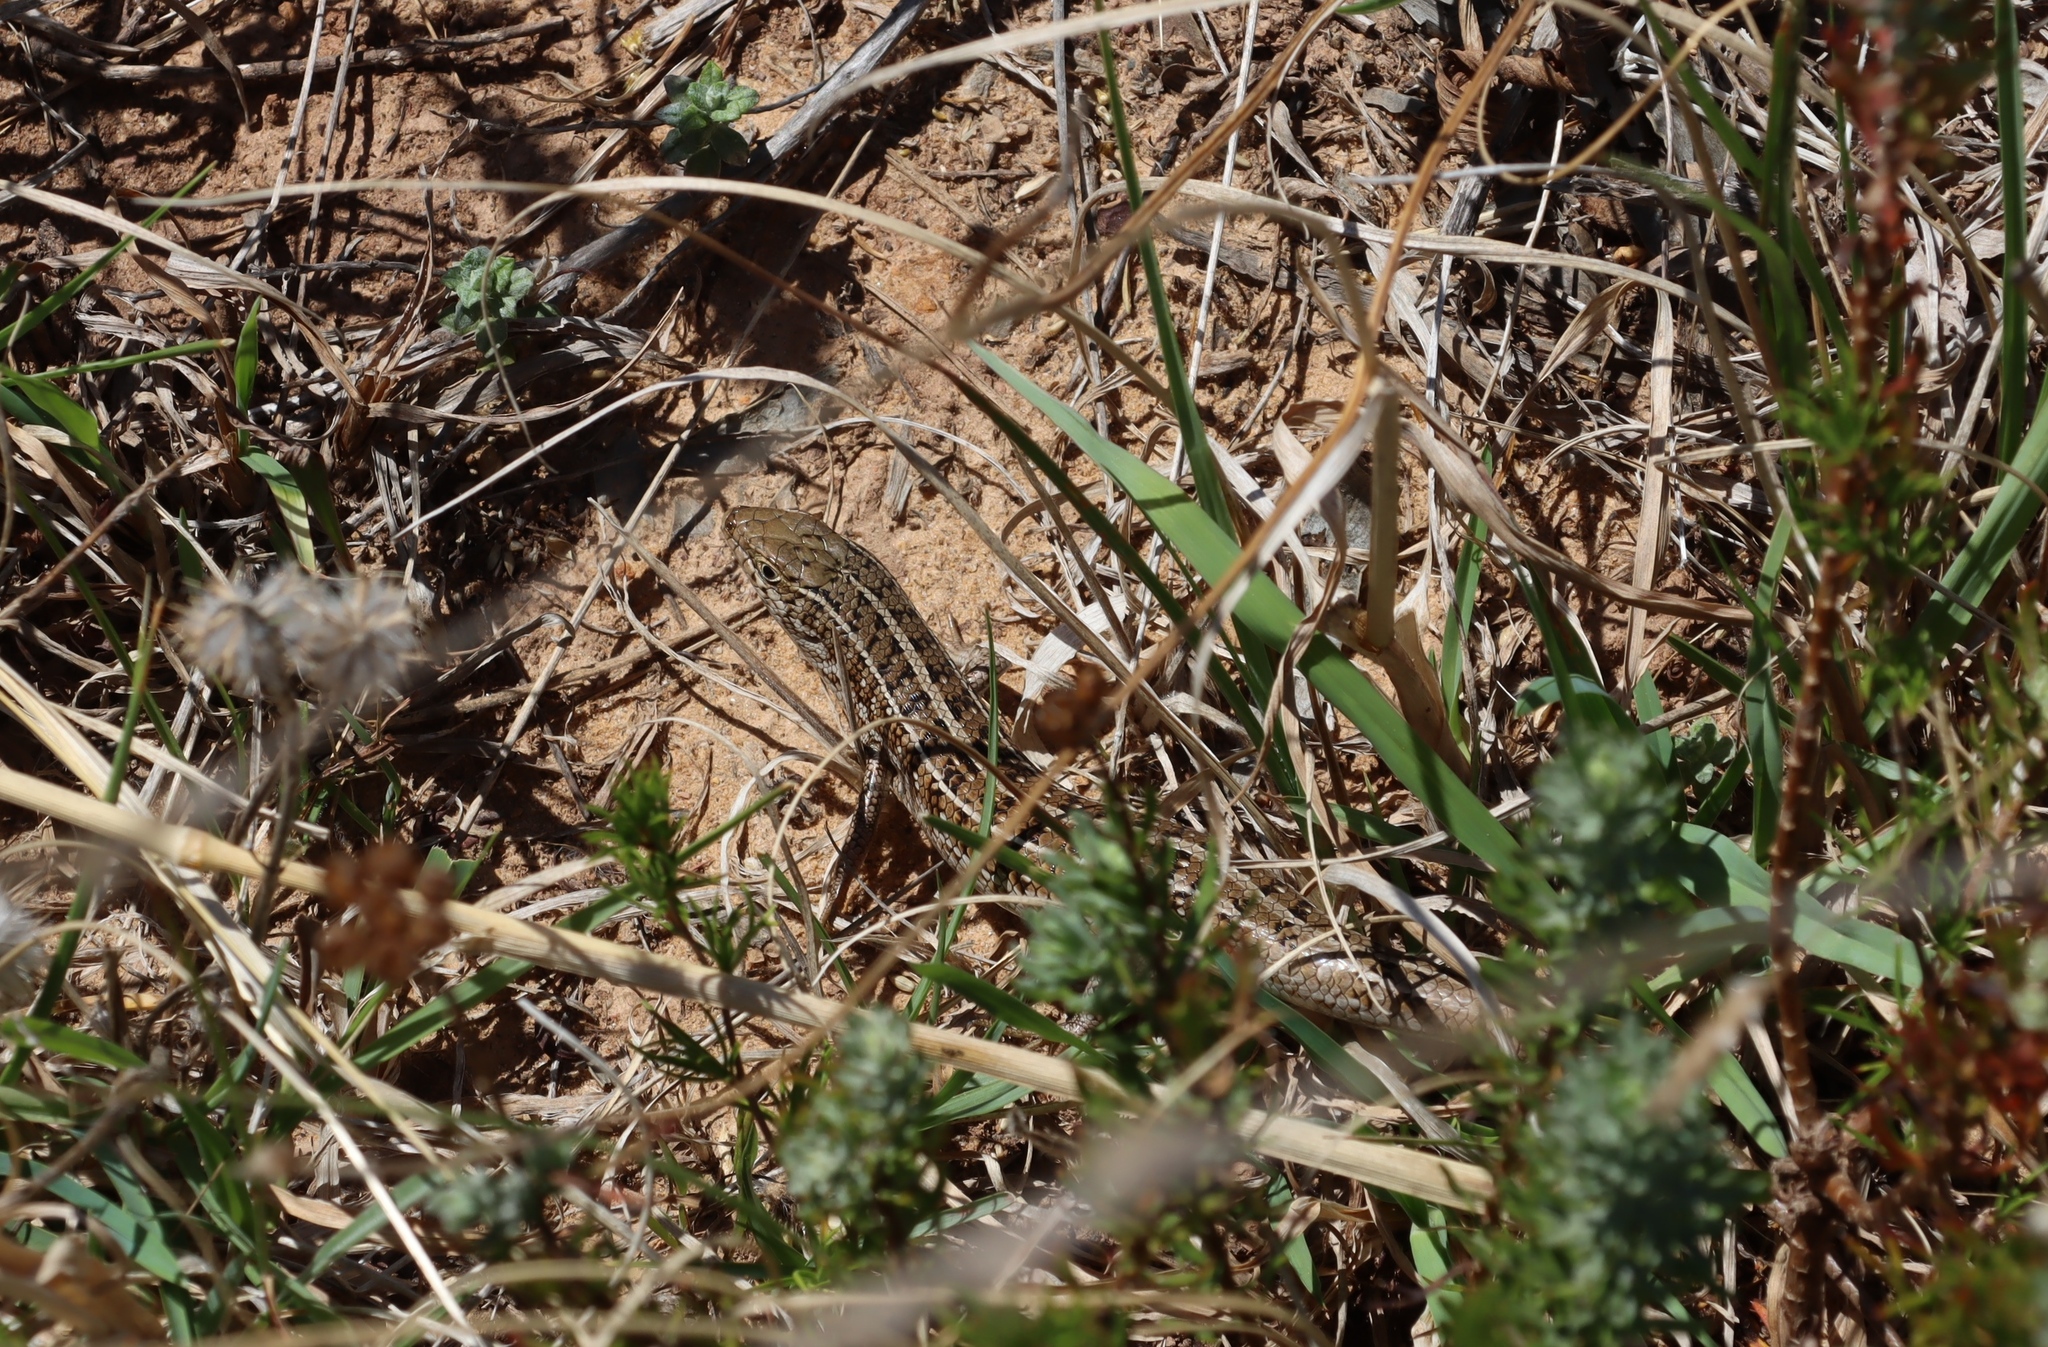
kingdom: Animalia
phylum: Chordata
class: Squamata
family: Scincidae
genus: Trachylepis
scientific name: Trachylepis capensis
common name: Cape skink
